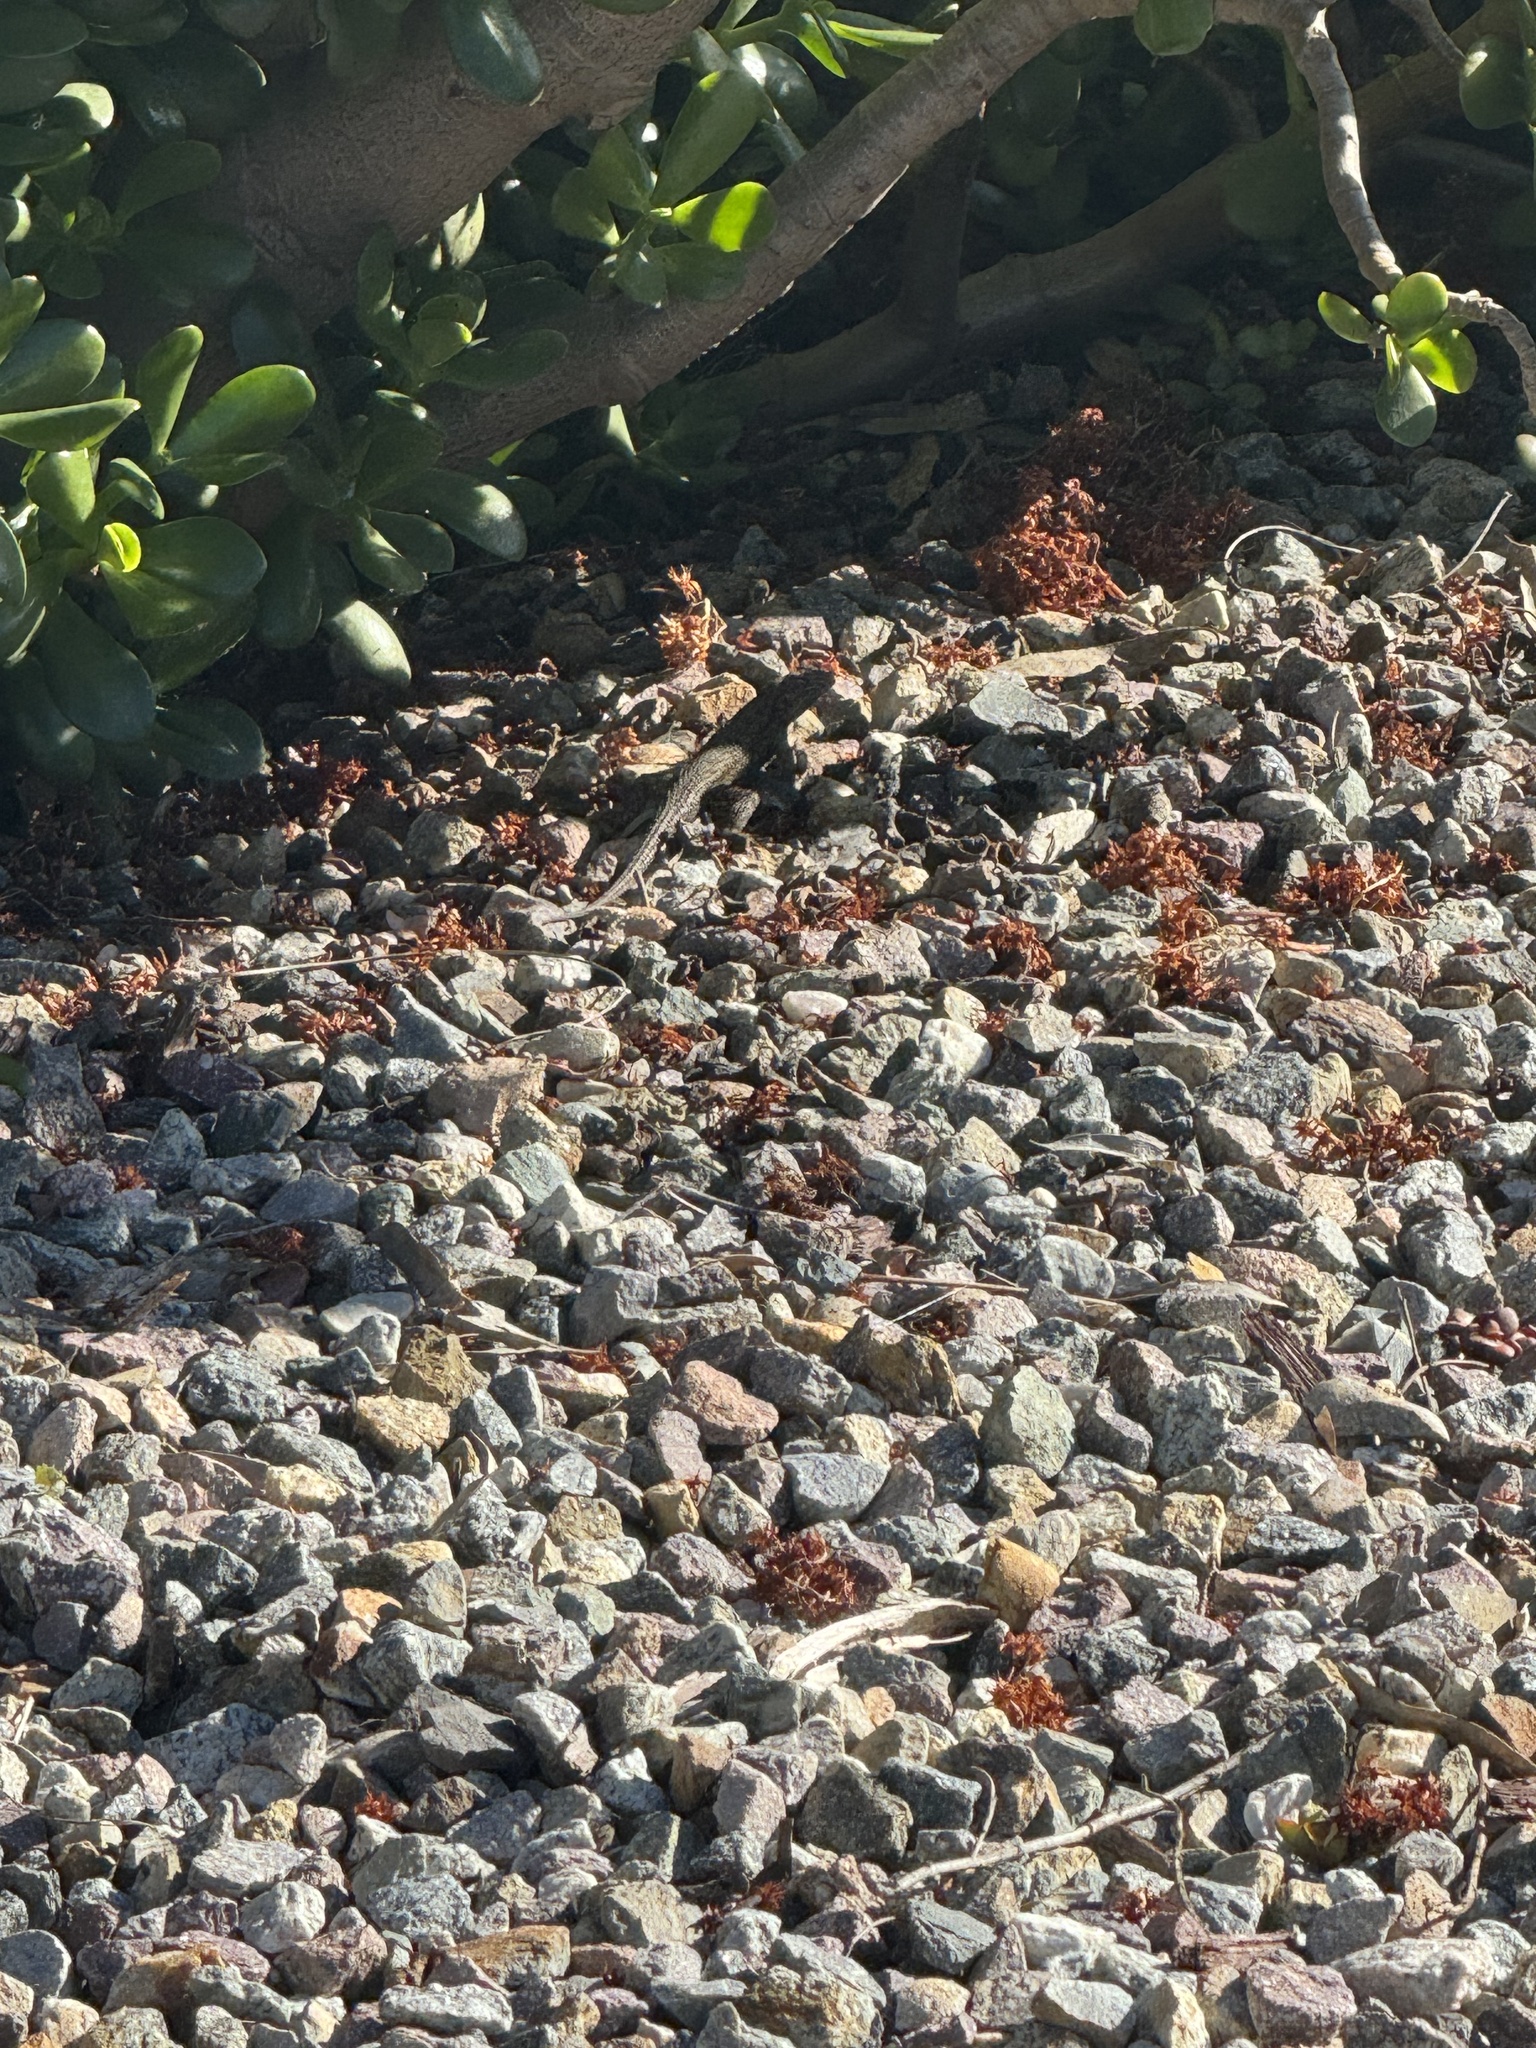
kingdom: Animalia
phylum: Chordata
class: Squamata
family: Phrynosomatidae
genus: Sceloporus
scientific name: Sceloporus occidentalis
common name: Western fence lizard
